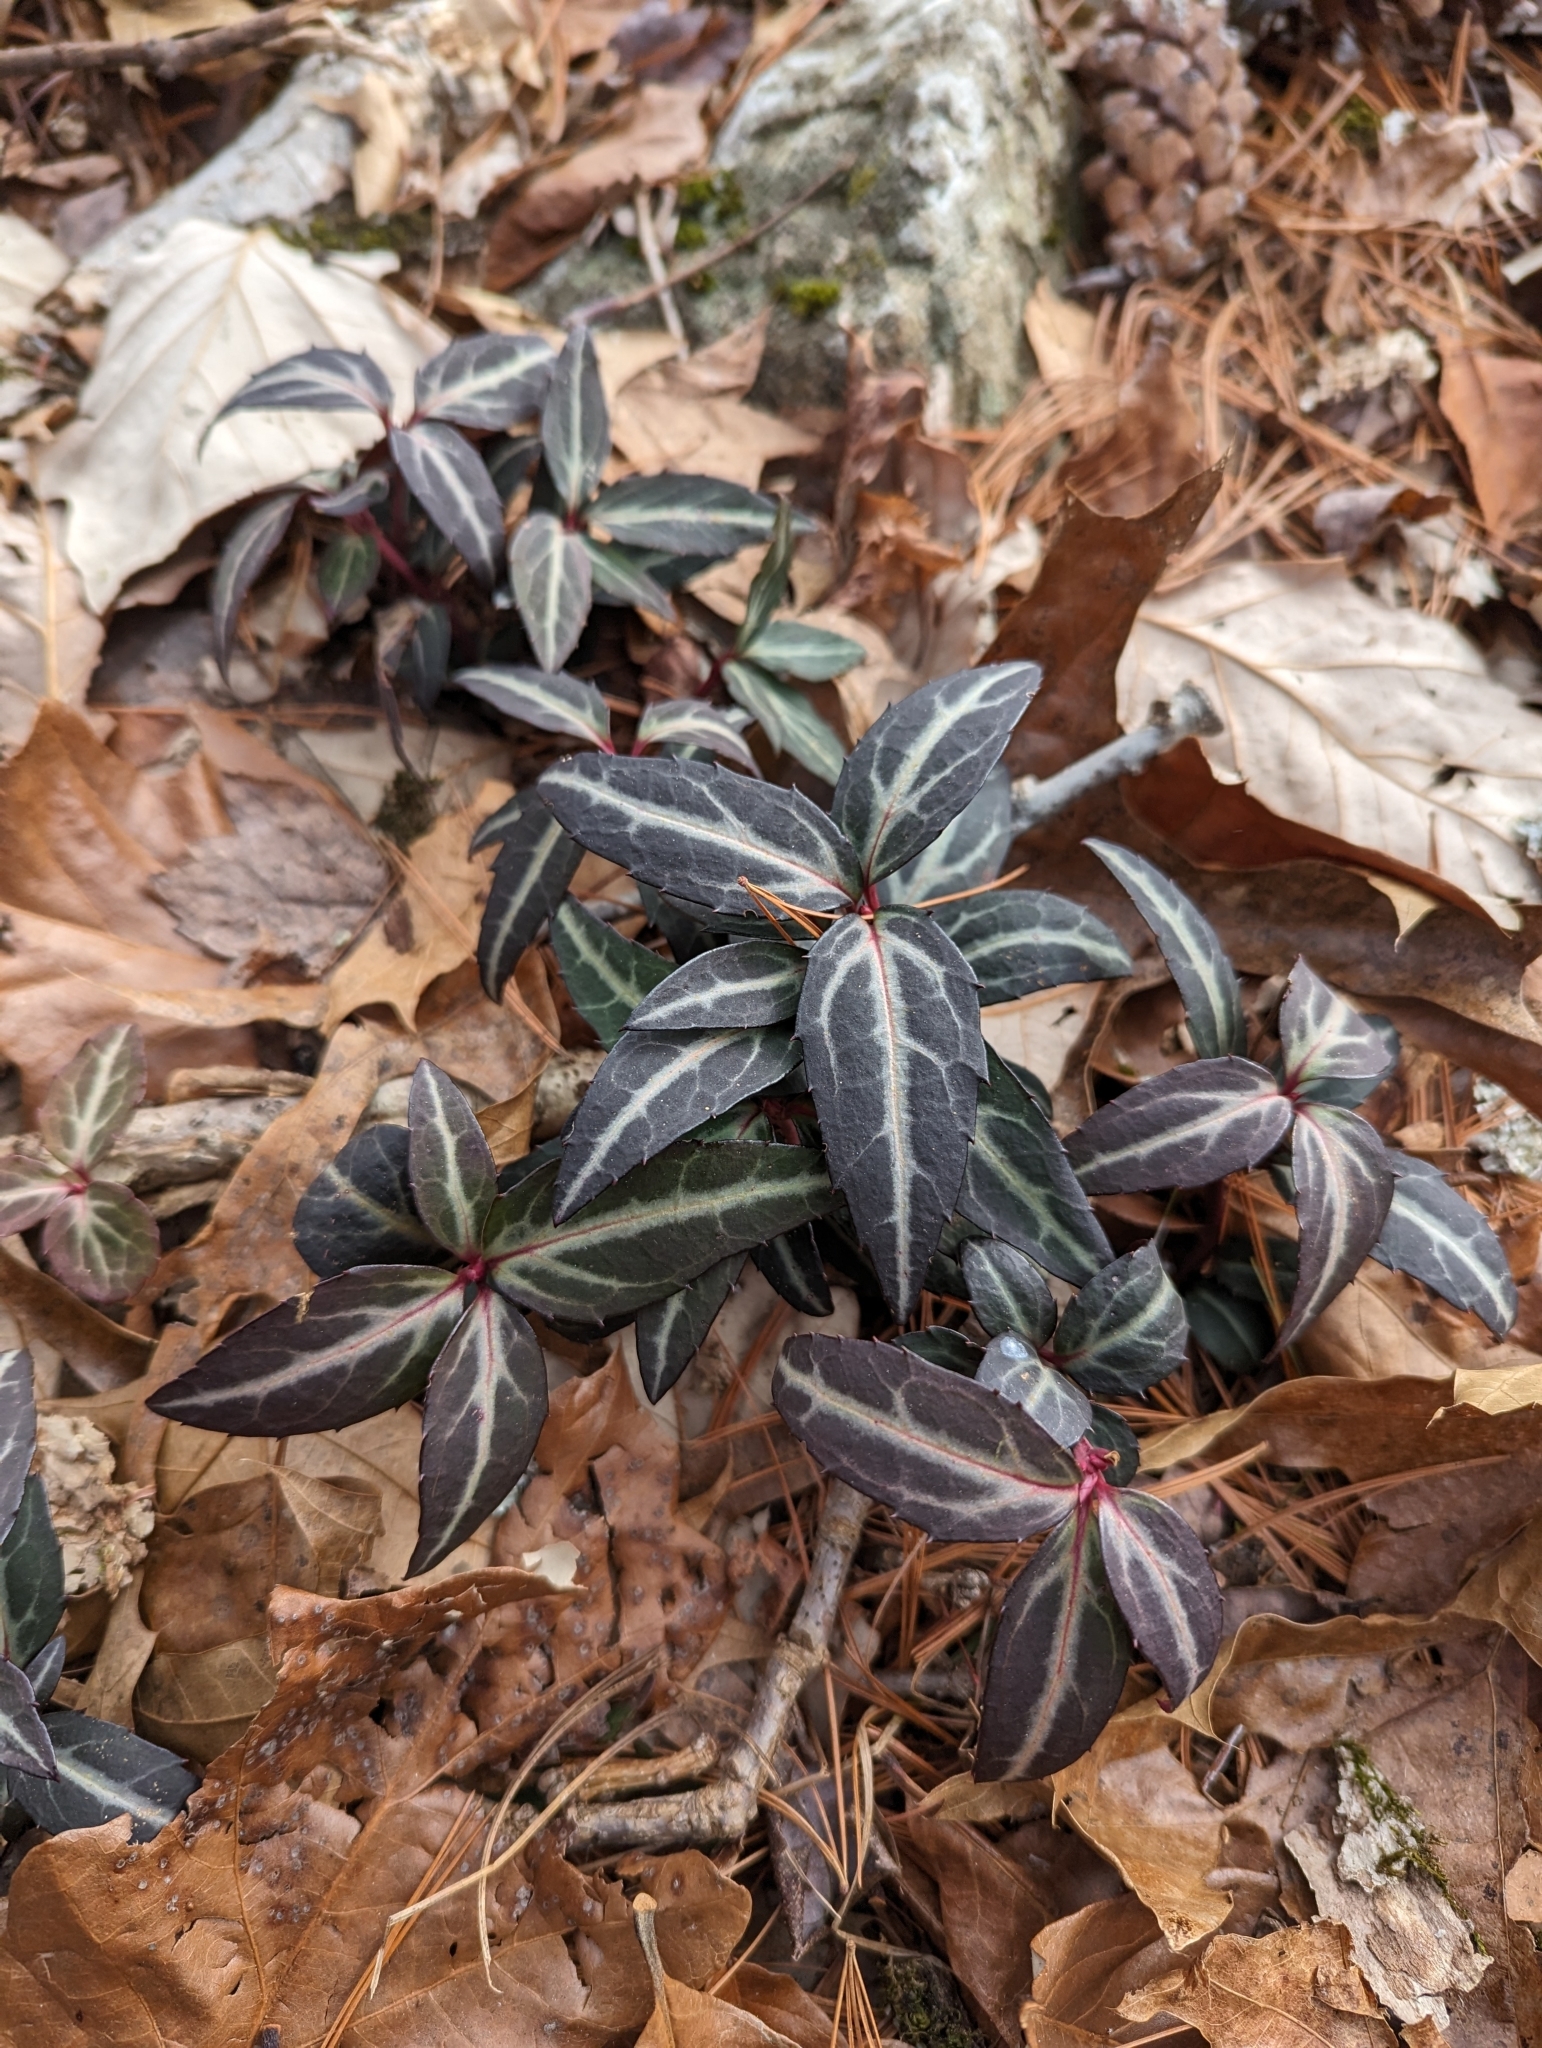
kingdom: Plantae
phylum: Tracheophyta
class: Magnoliopsida
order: Ericales
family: Ericaceae
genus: Chimaphila
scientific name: Chimaphila maculata
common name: Spotted pipsissewa
